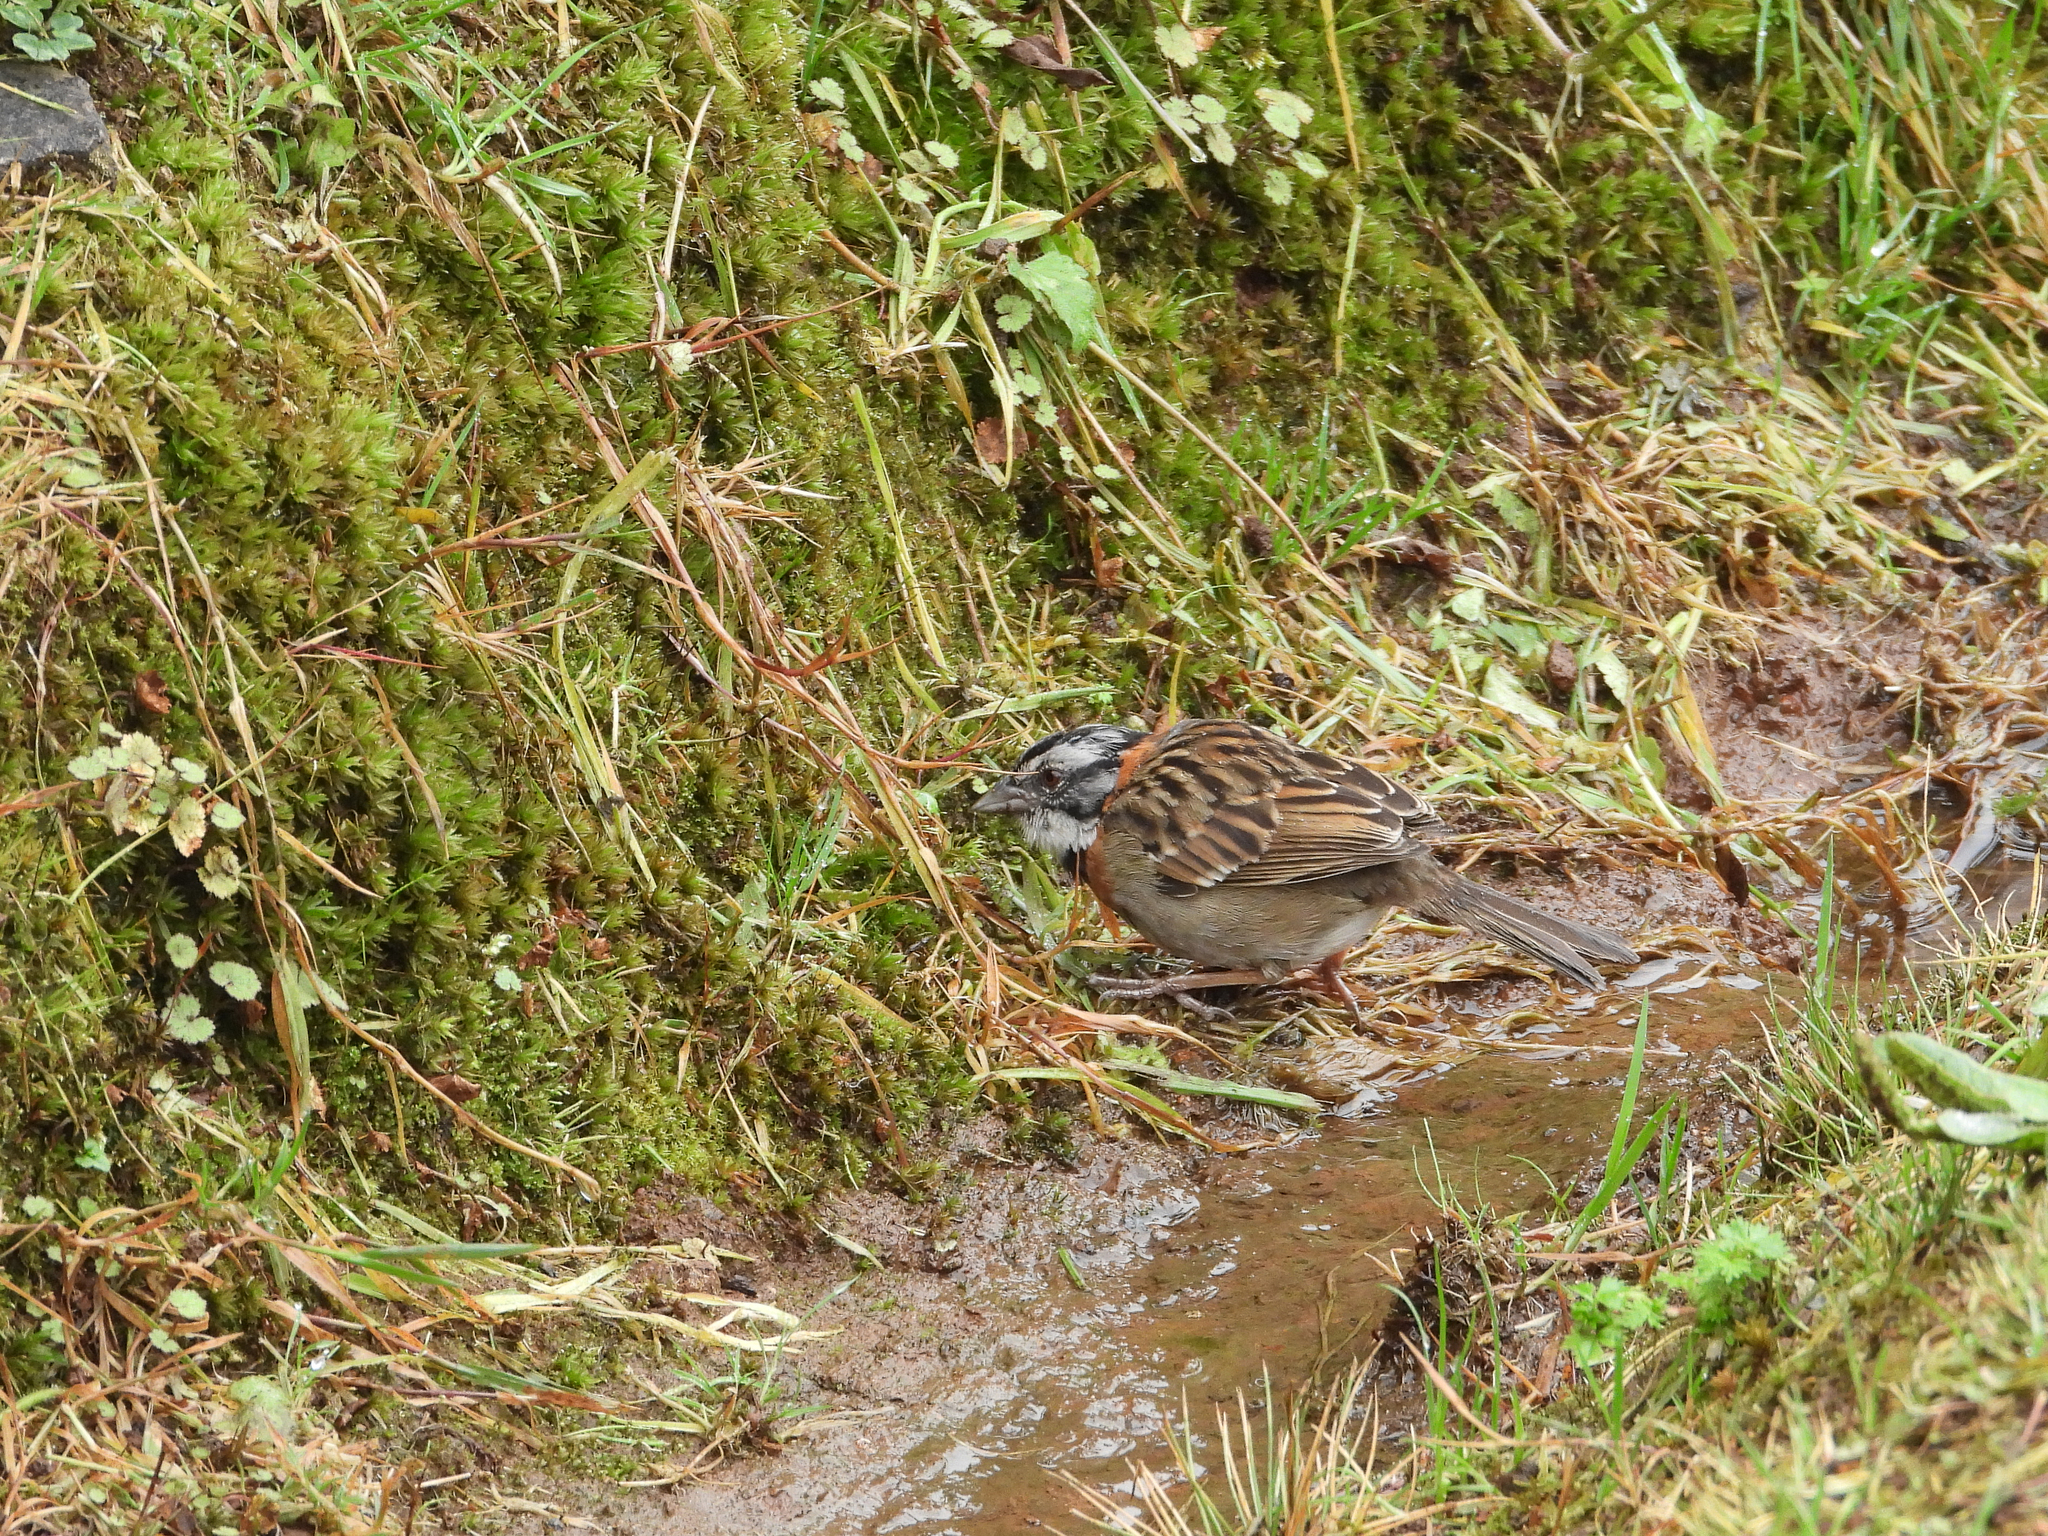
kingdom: Animalia
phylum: Chordata
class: Aves
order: Passeriformes
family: Passerellidae
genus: Zonotrichia
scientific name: Zonotrichia capensis
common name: Rufous-collared sparrow
